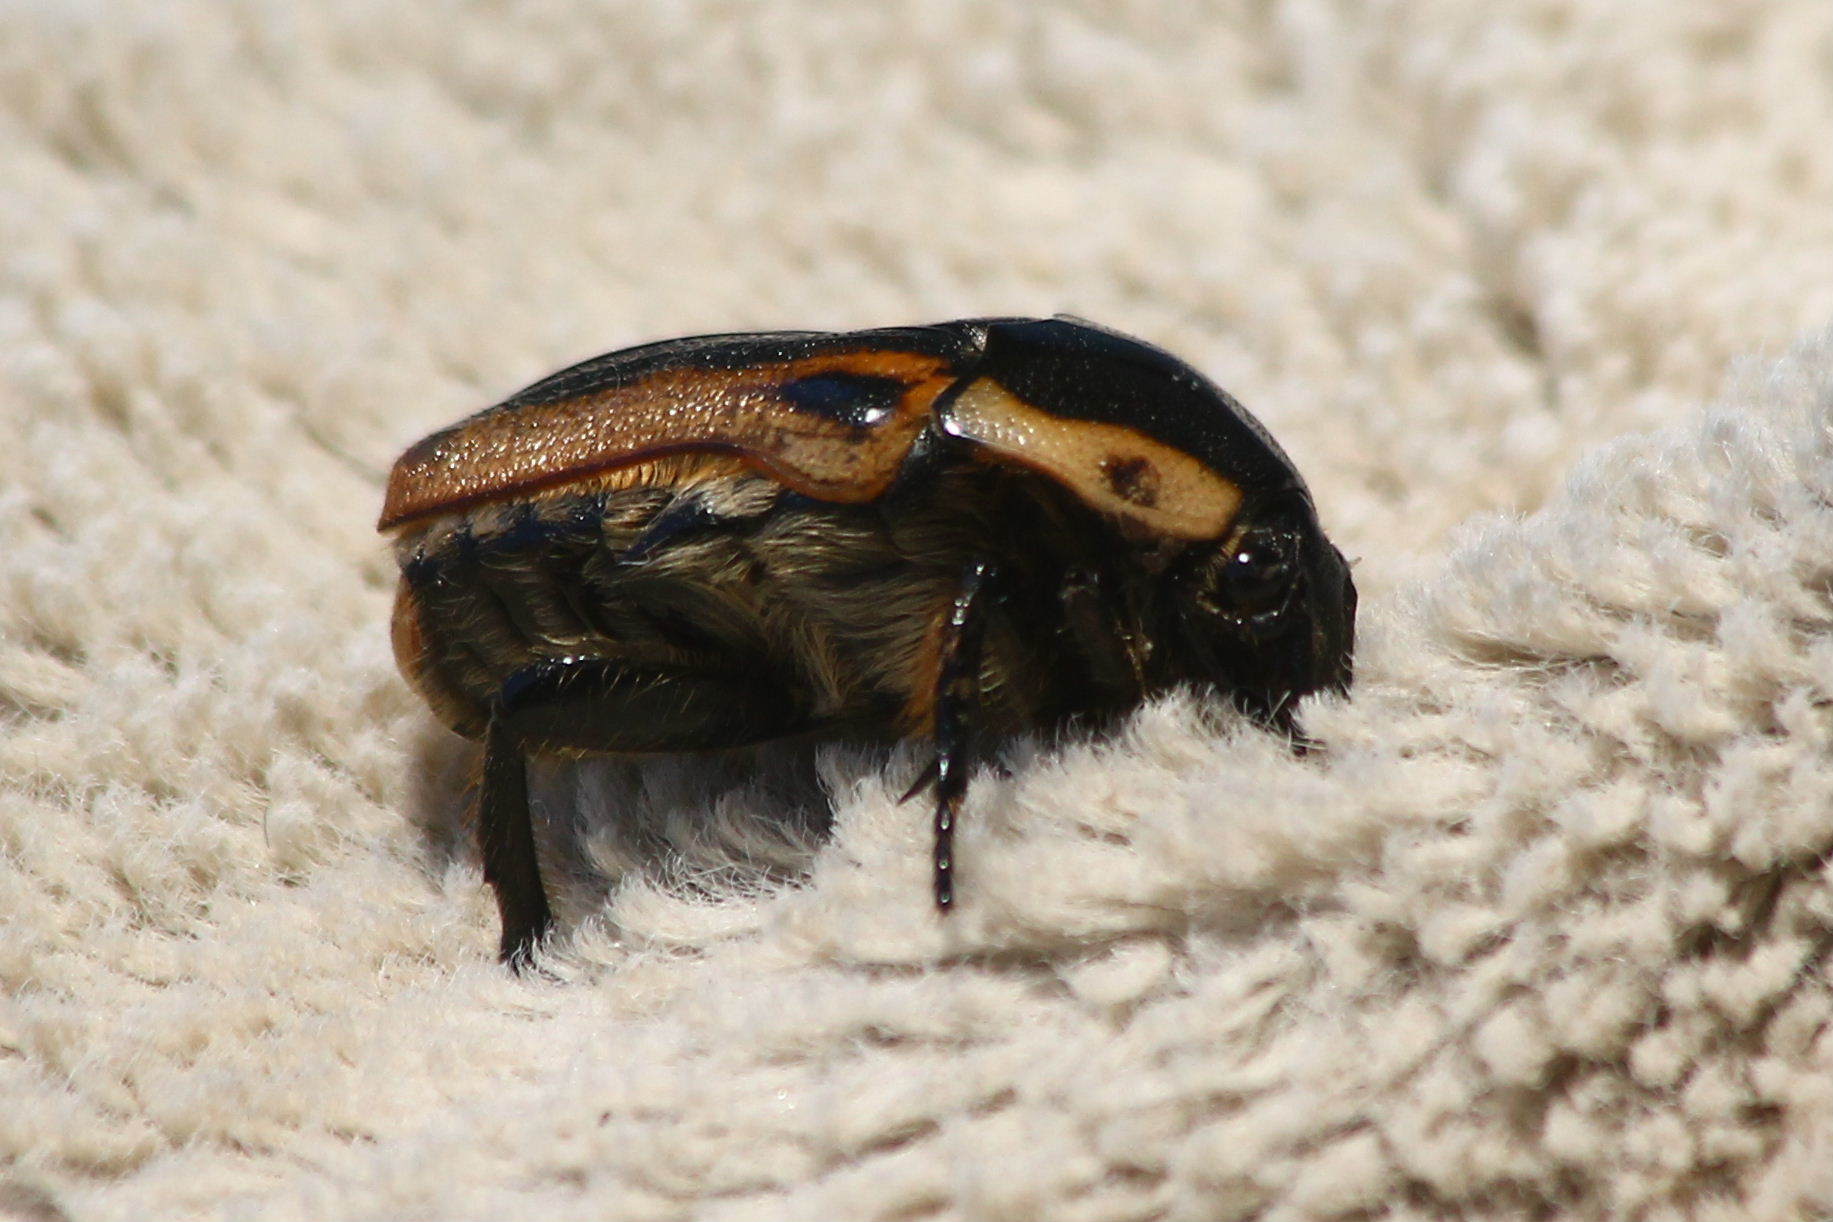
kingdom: Animalia
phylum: Arthropoda
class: Insecta
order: Coleoptera
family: Scarabaeidae
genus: Chondropyga
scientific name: Chondropyga dorsalis
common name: Cowboy beetle
